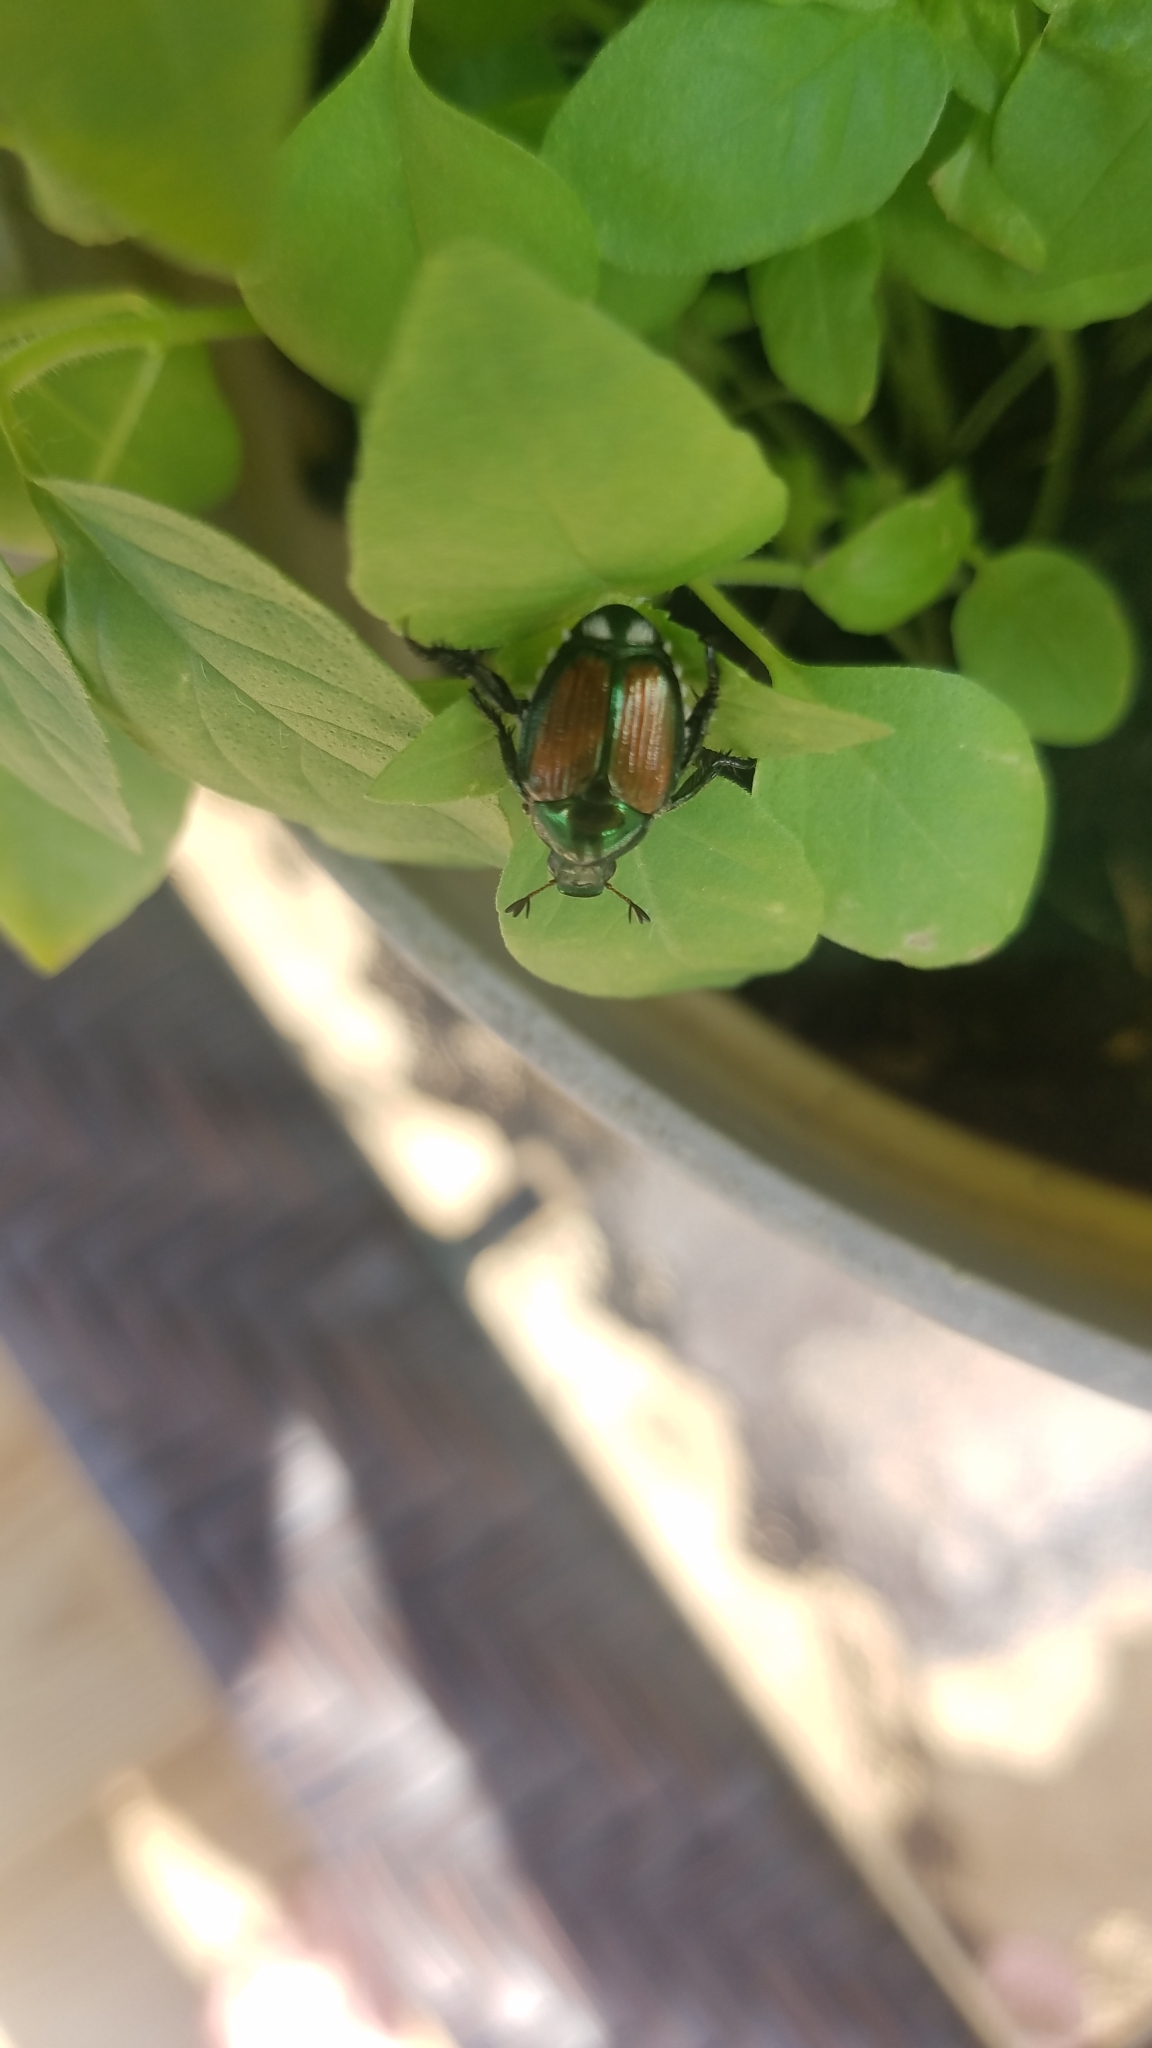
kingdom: Animalia
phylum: Arthropoda
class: Insecta
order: Coleoptera
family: Scarabaeidae
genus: Popillia
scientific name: Popillia japonica
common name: Japanese beetle
